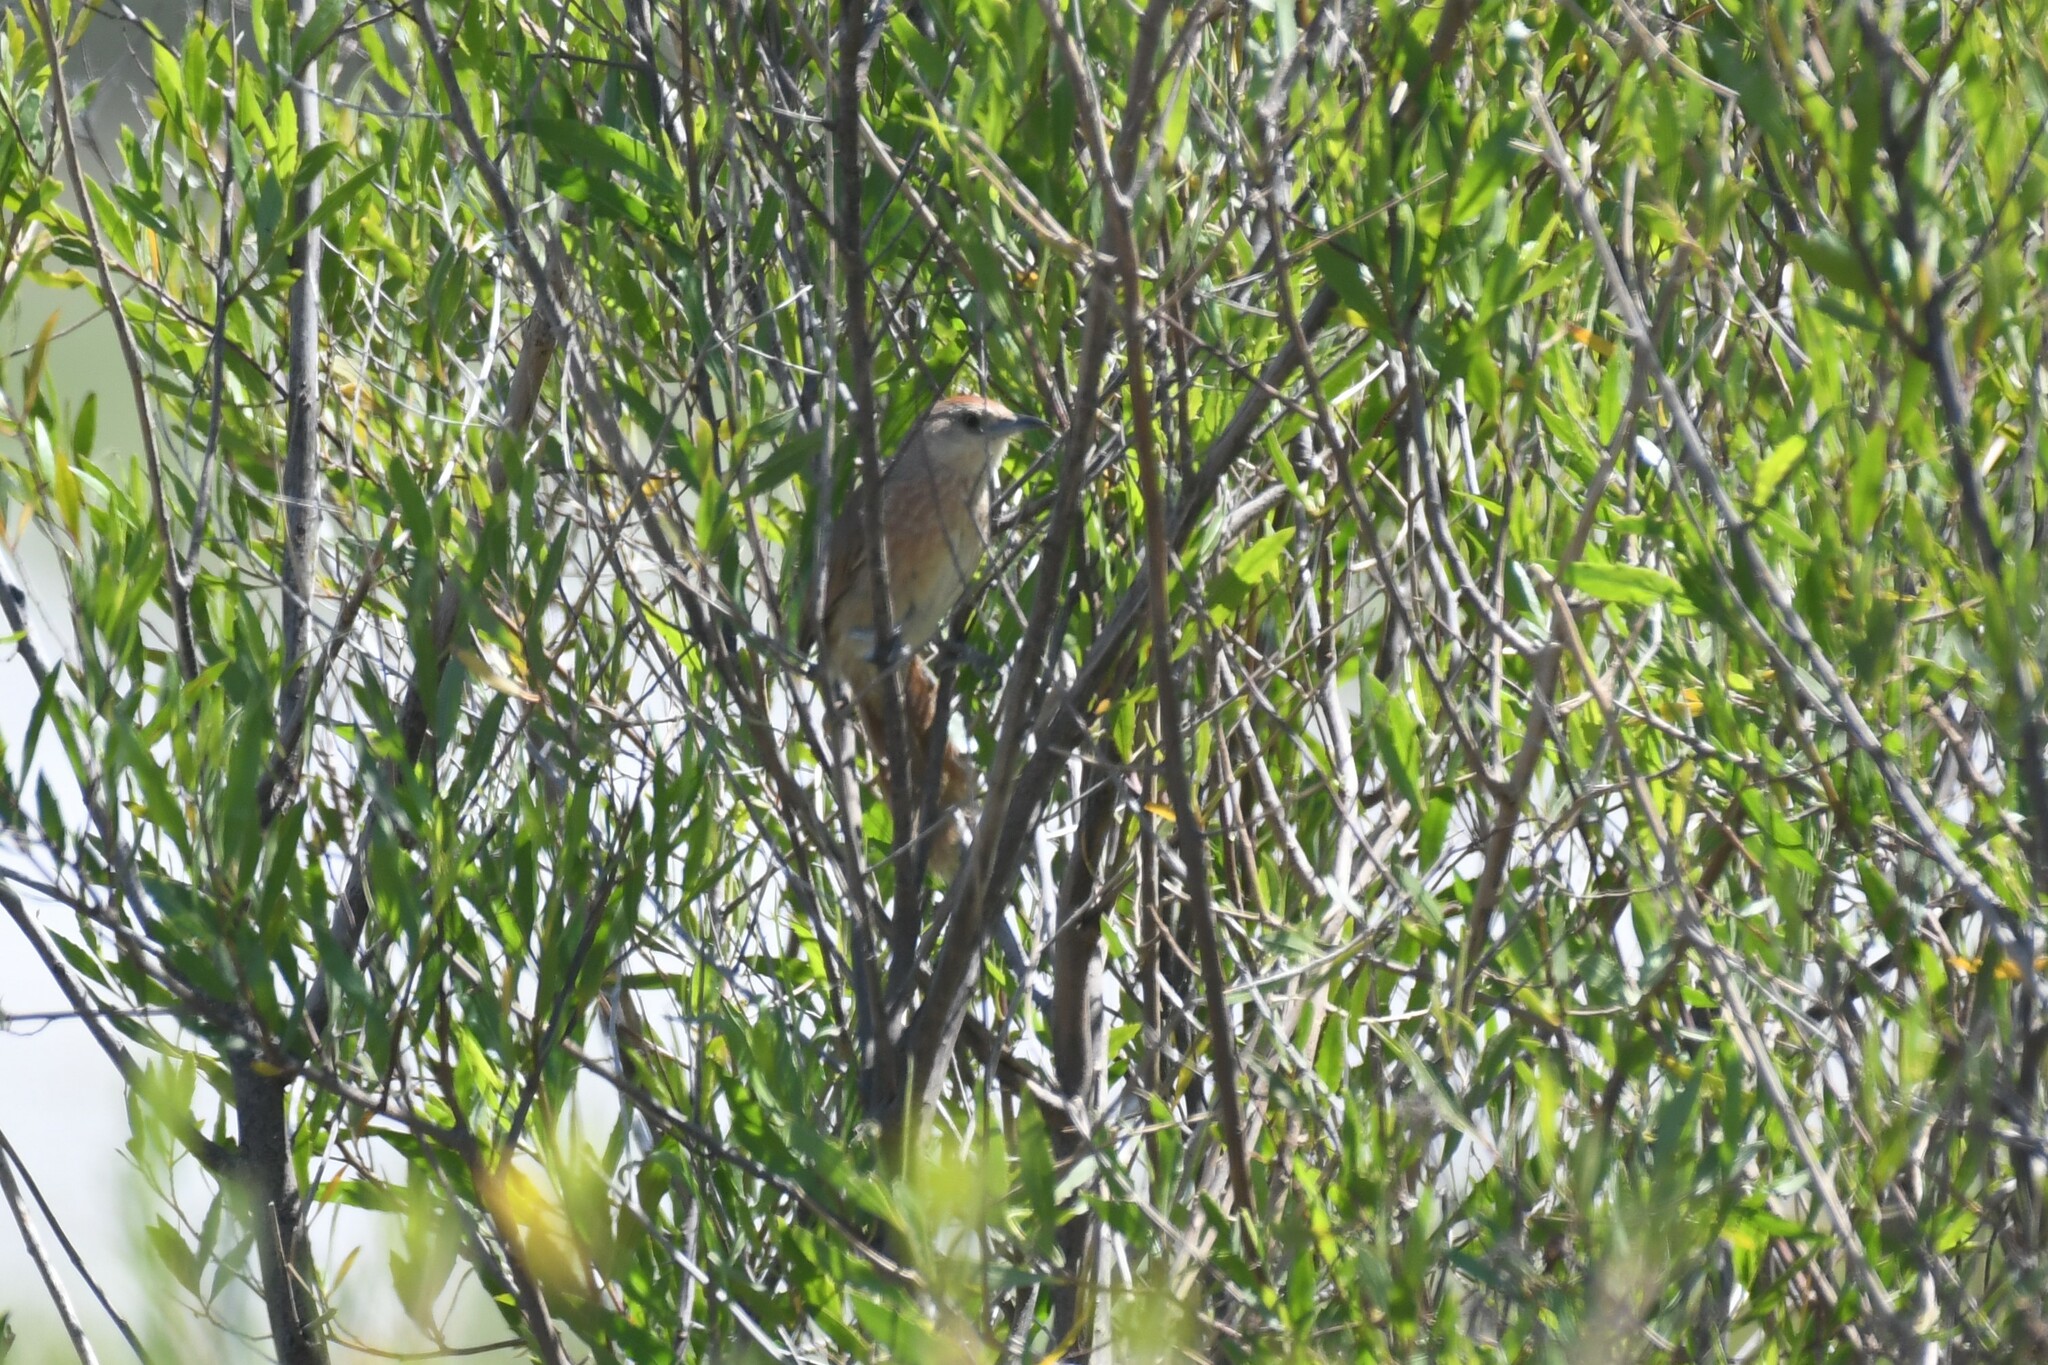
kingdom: Animalia
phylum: Chordata
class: Aves
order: Passeriformes
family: Furnariidae
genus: Phacellodomus
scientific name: Phacellodomus striaticollis
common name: Freckle-breasted thornbird
